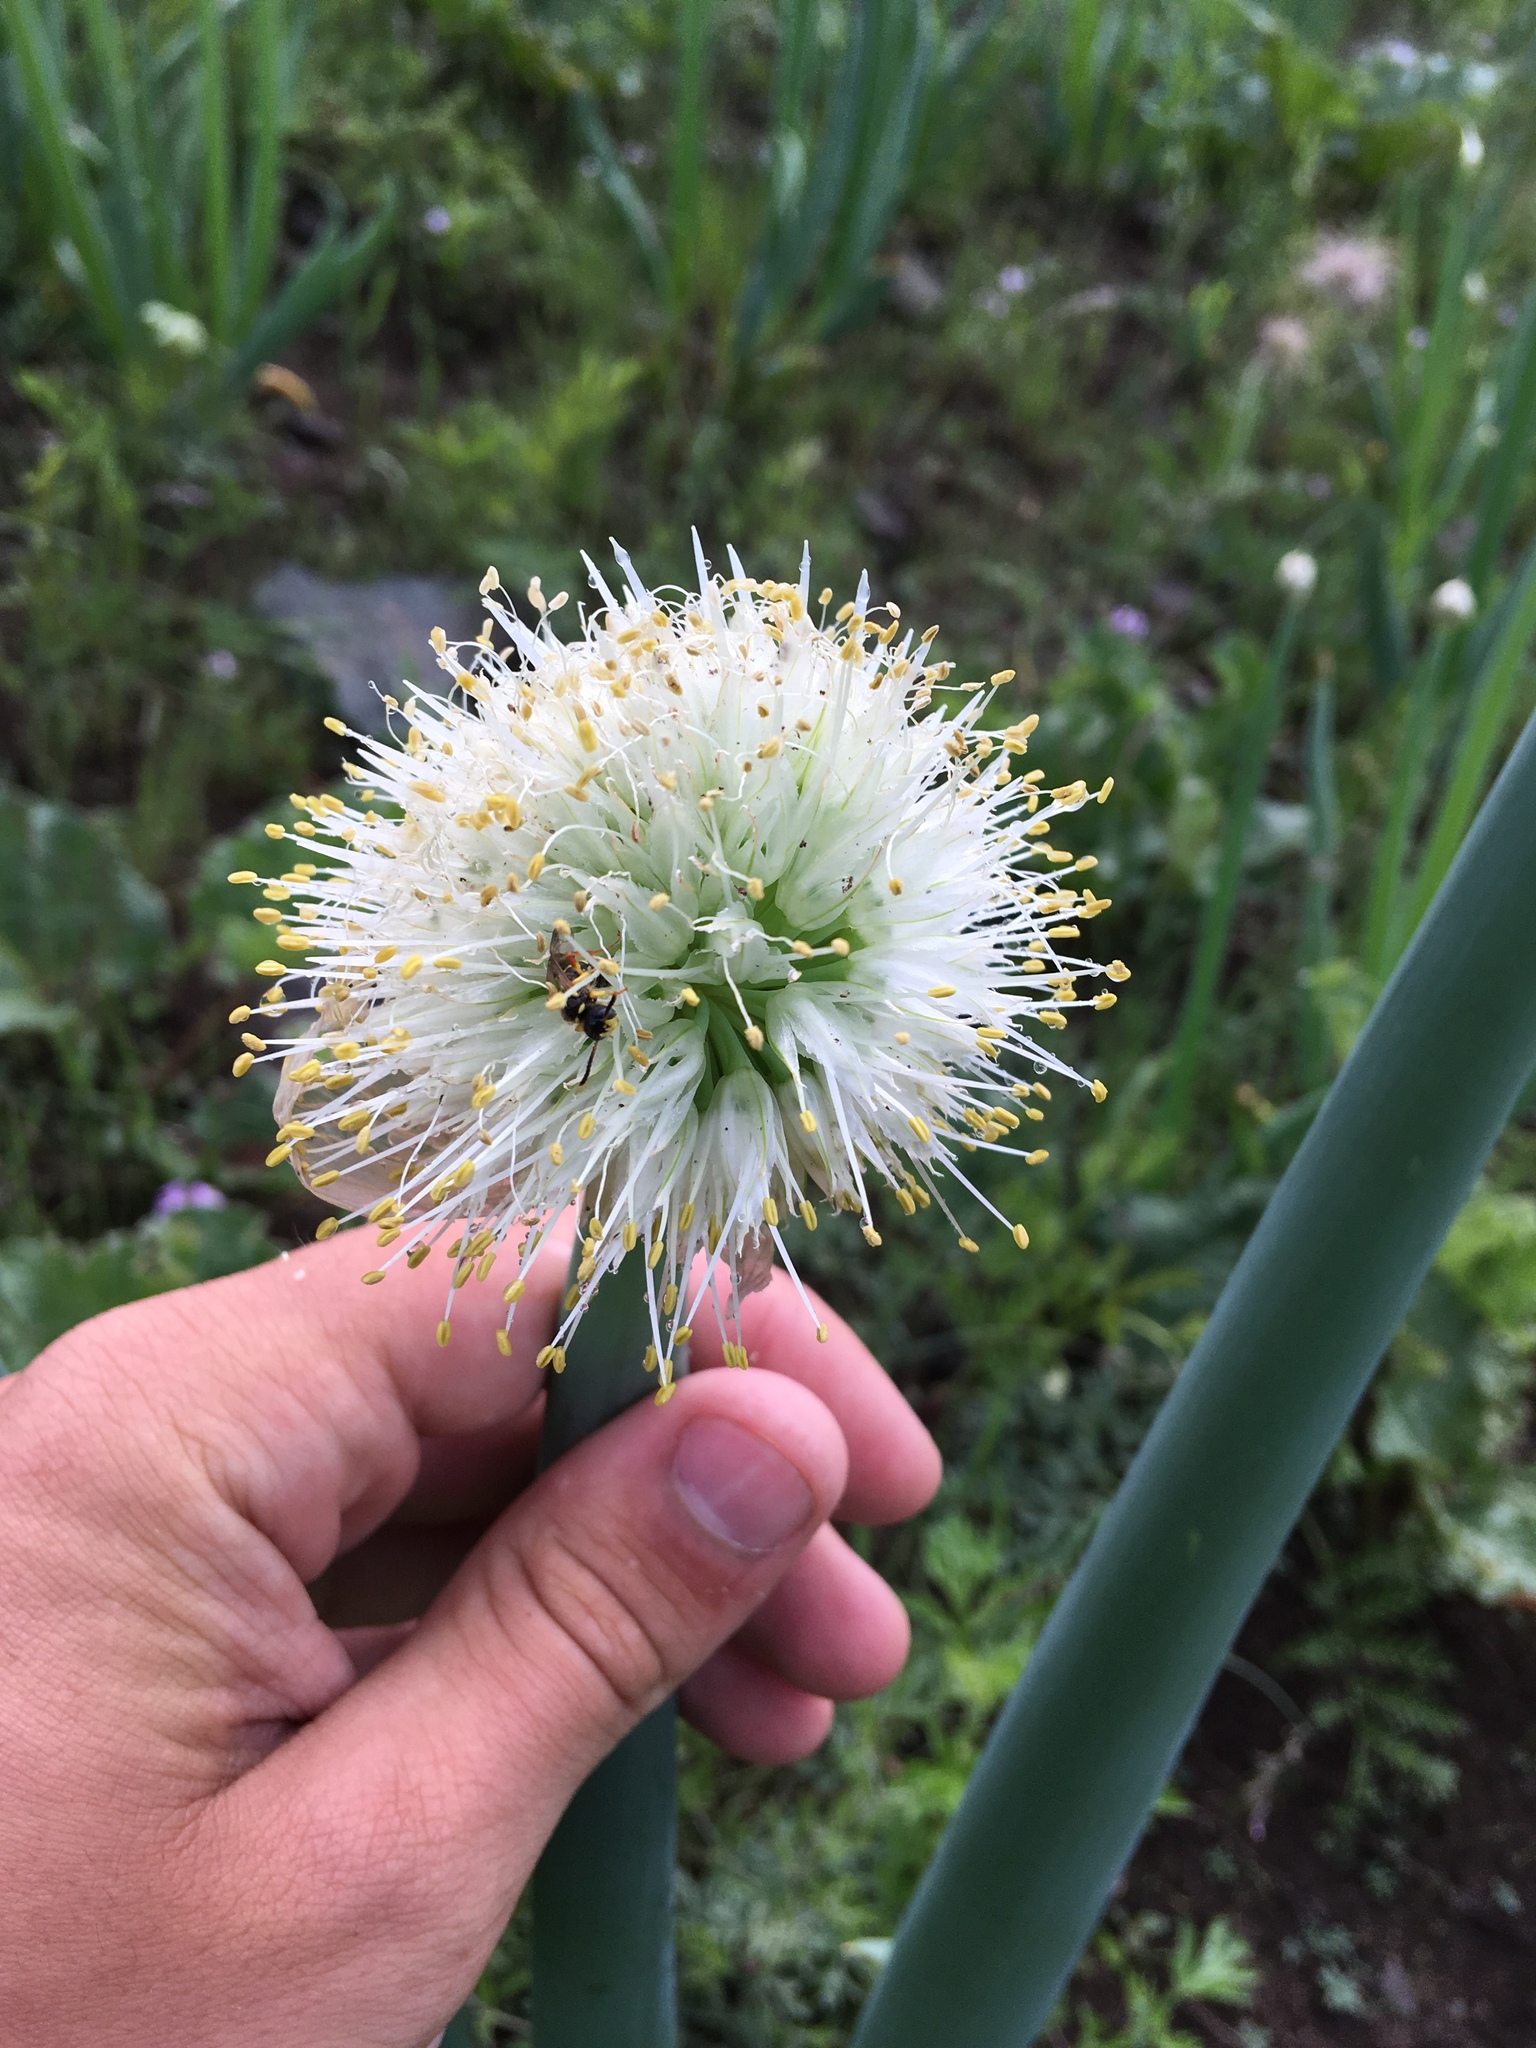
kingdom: Plantae
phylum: Tracheophyta
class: Liliopsida
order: Asparagales
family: Amaryllidaceae
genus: Allium
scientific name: Allium altaicum
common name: Altai onion
